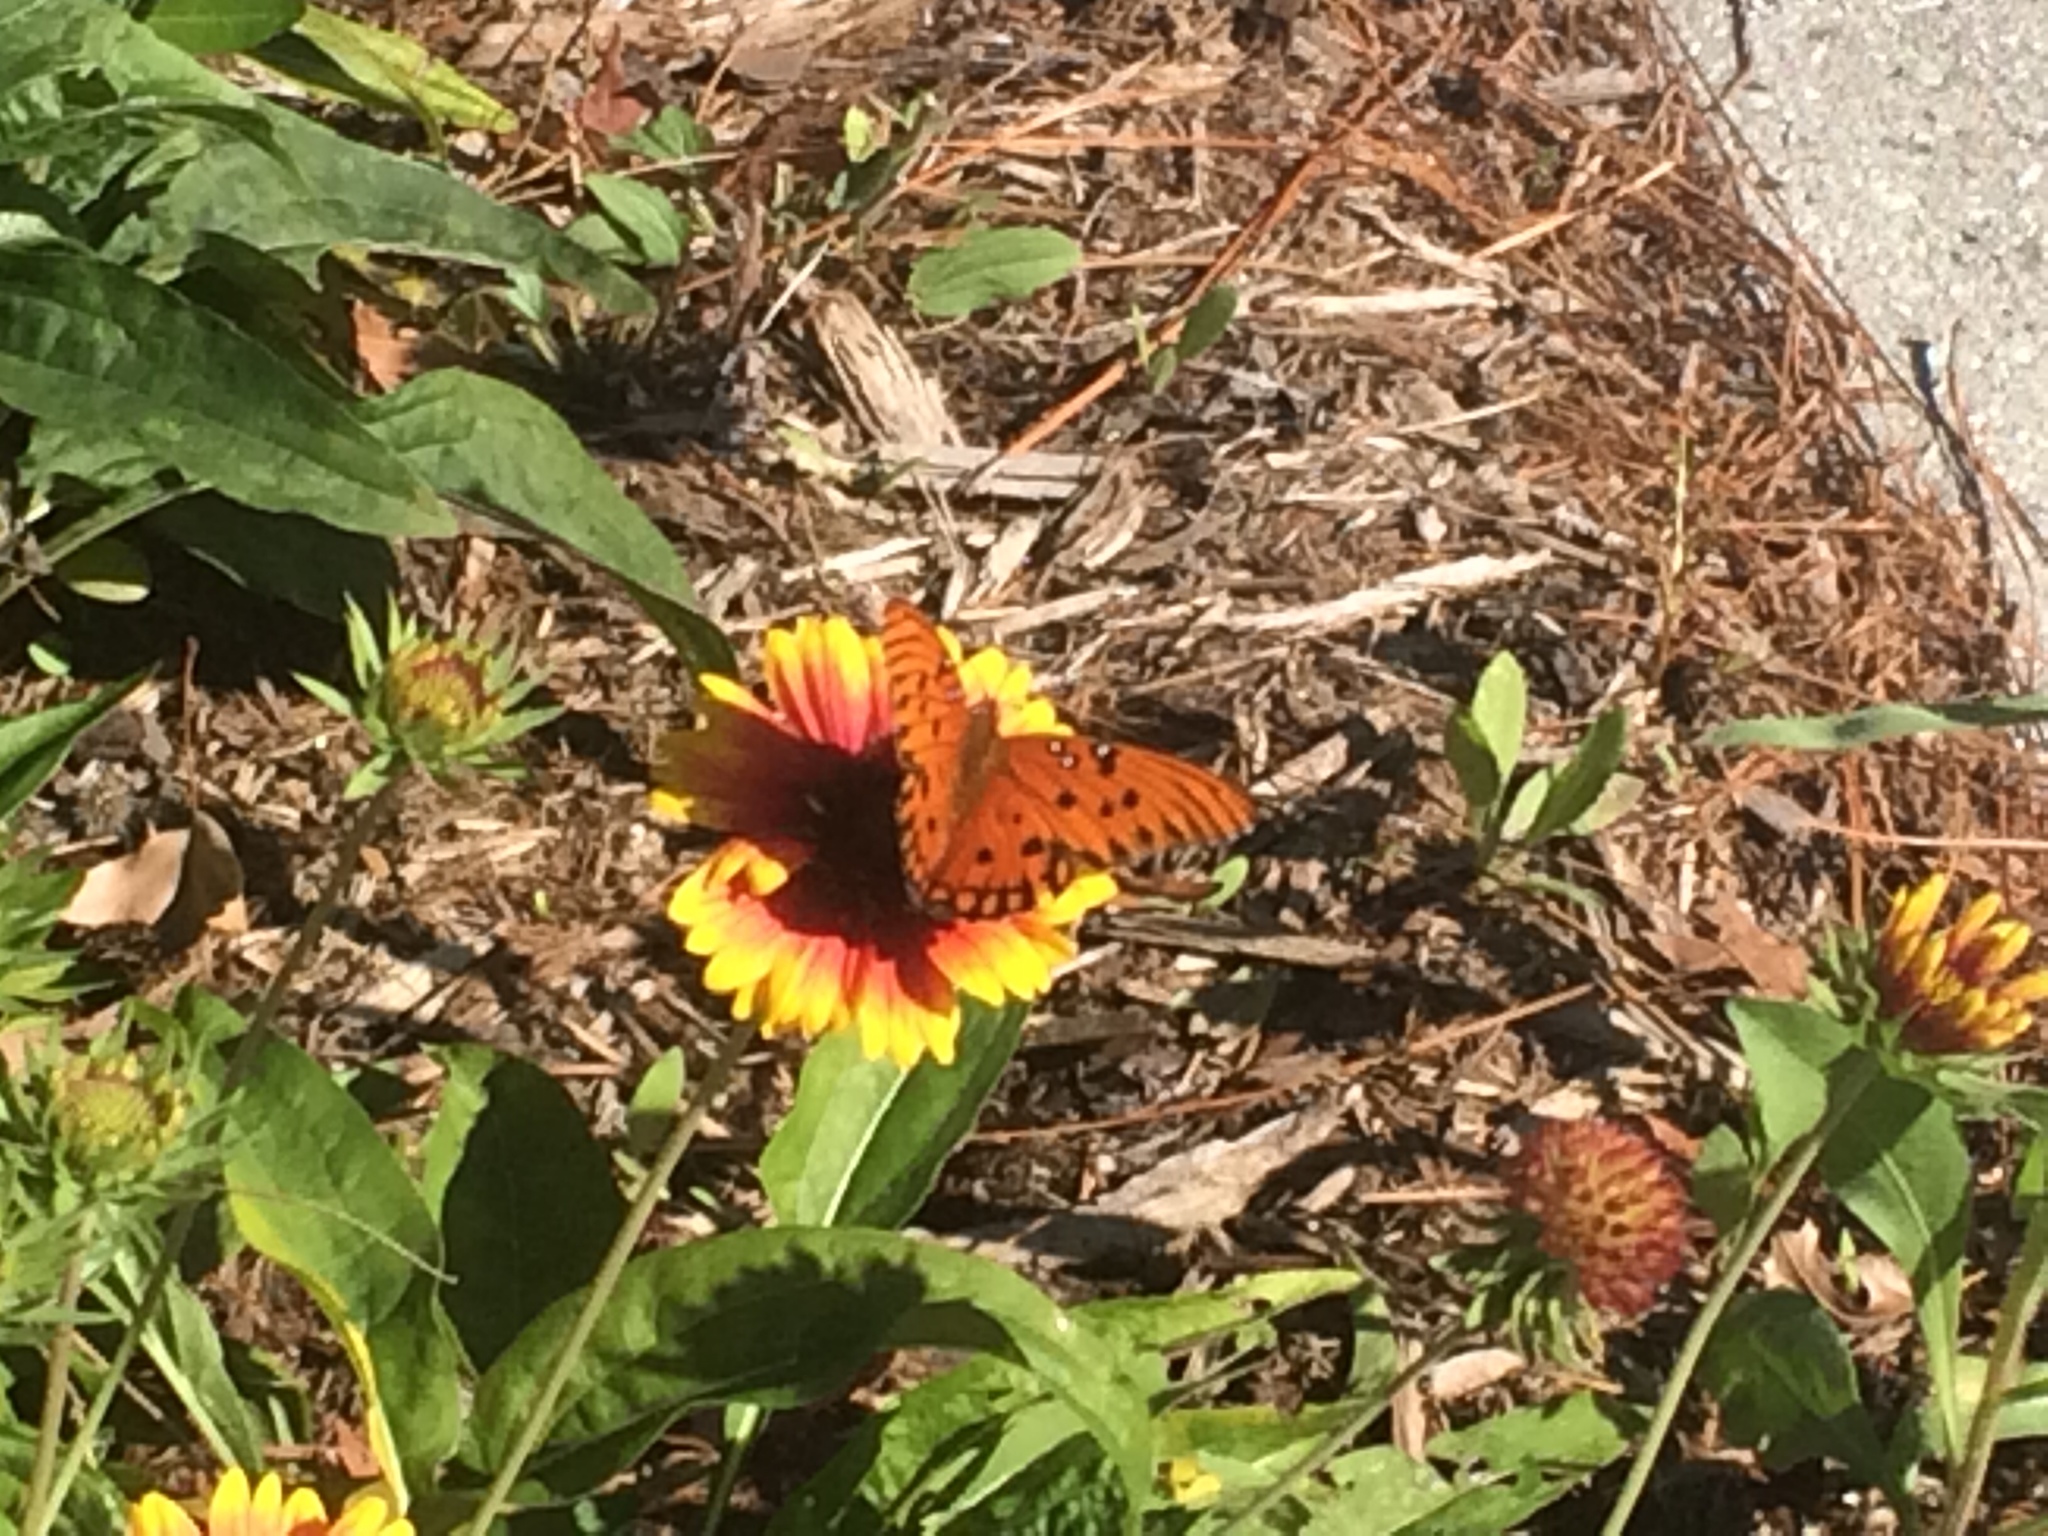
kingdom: Animalia
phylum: Arthropoda
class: Insecta
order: Lepidoptera
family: Nymphalidae
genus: Dione
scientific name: Dione vanillae
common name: Gulf fritillary
